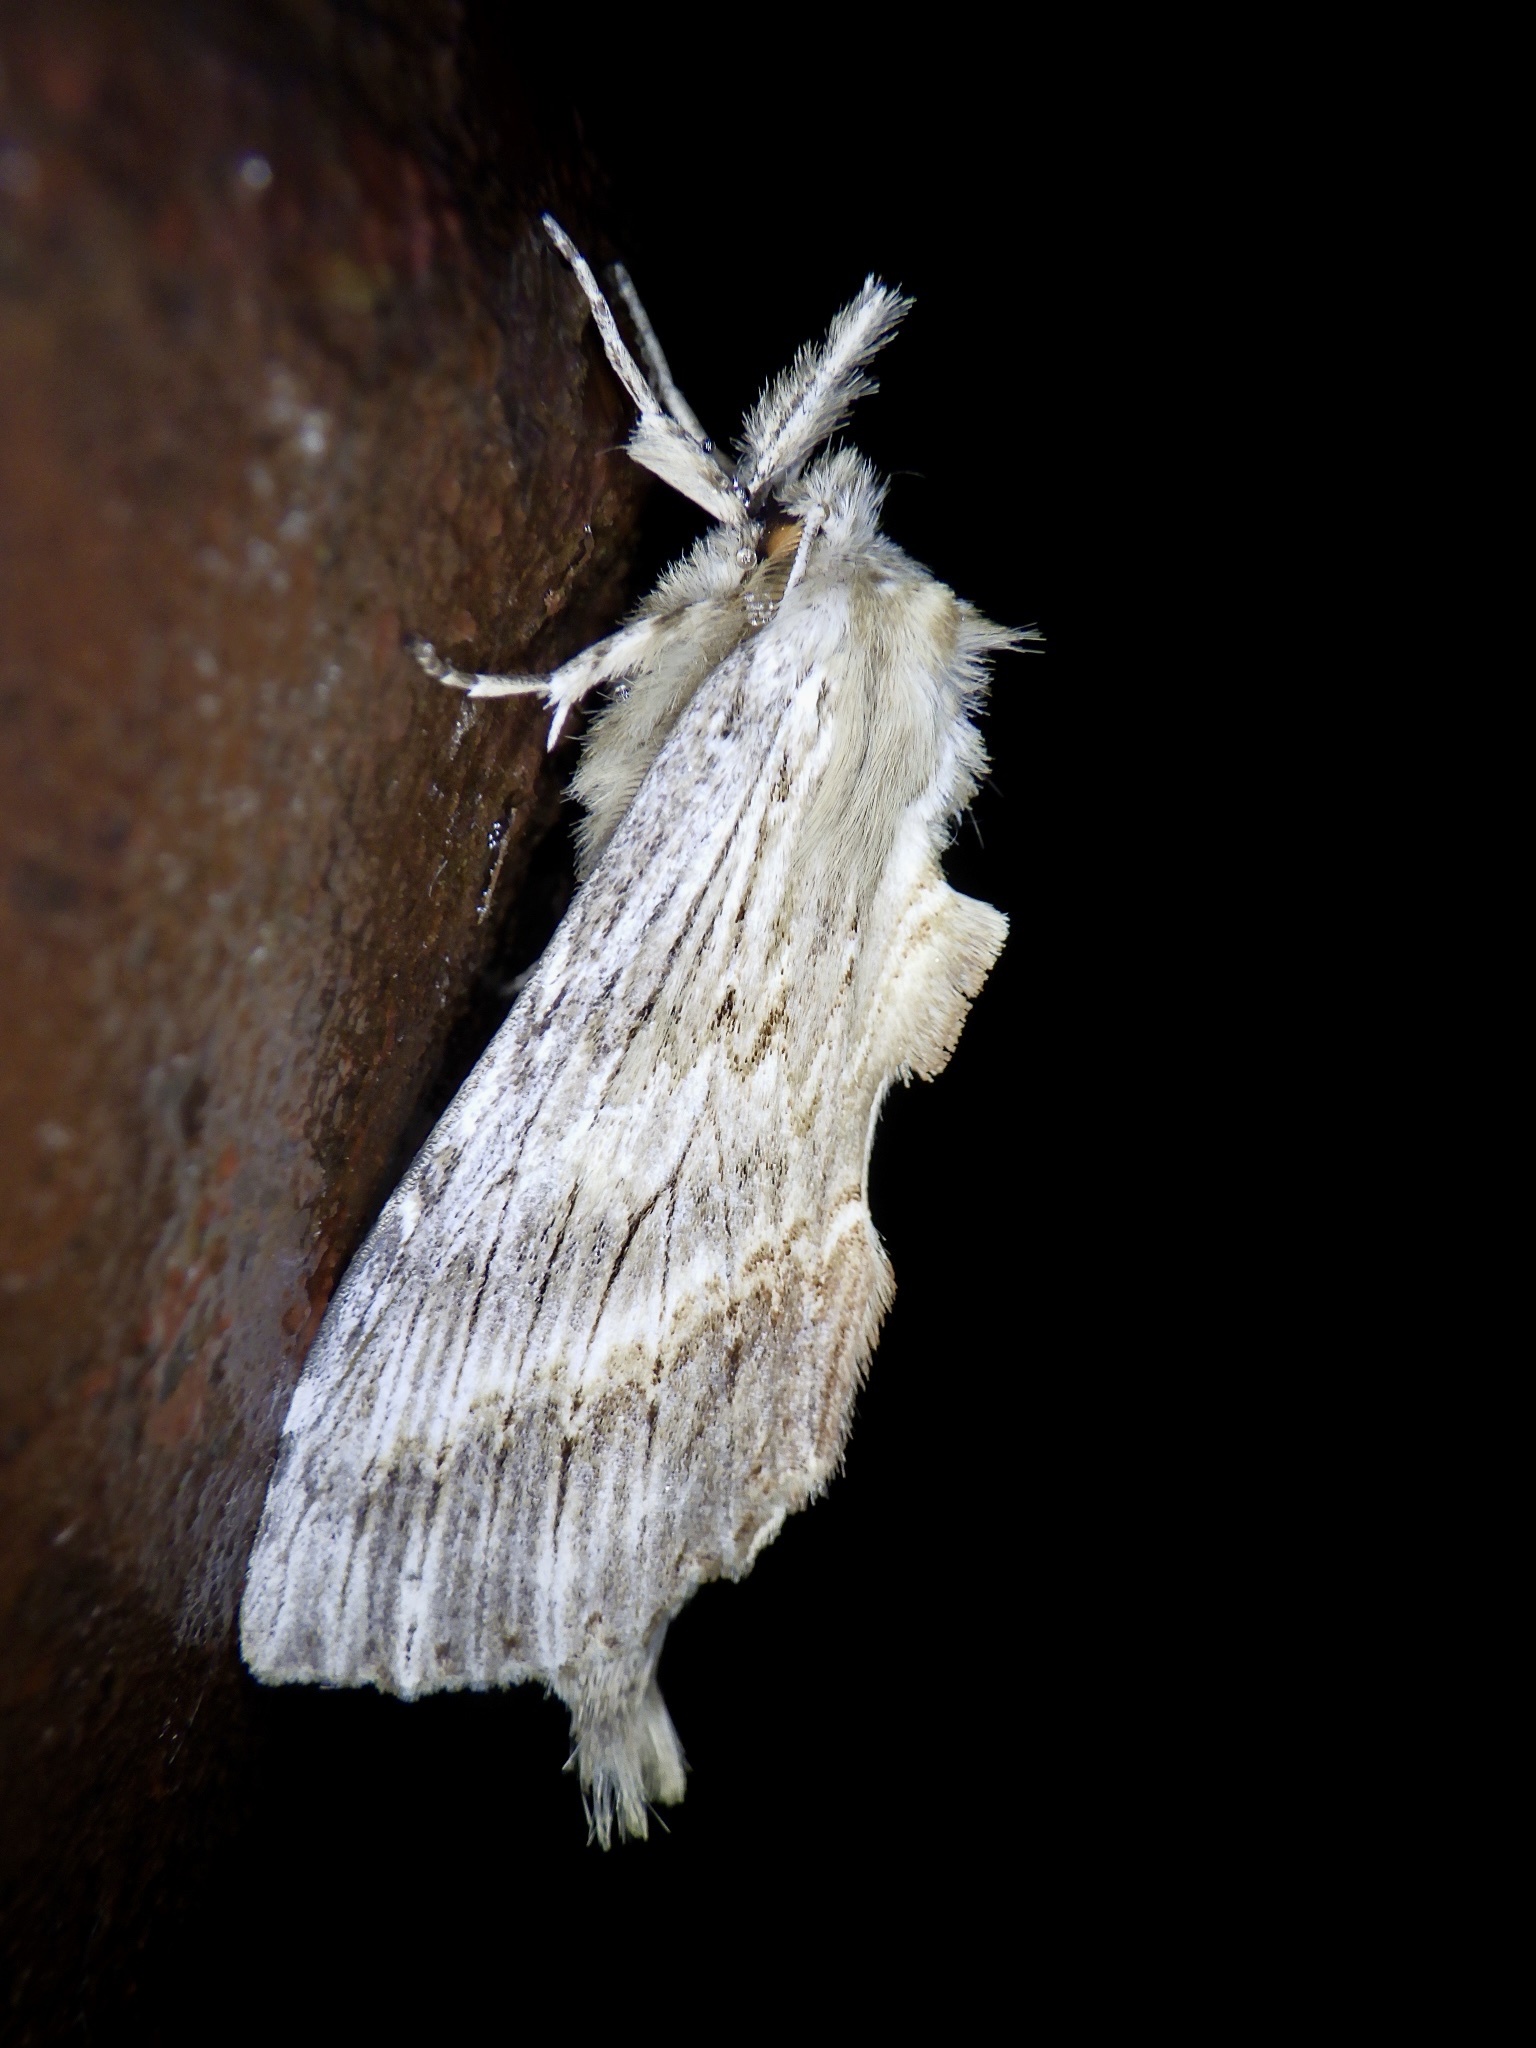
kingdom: Animalia
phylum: Arthropoda
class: Insecta
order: Lepidoptera
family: Notodontidae
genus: Pterostoma
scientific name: Pterostoma gigantina
